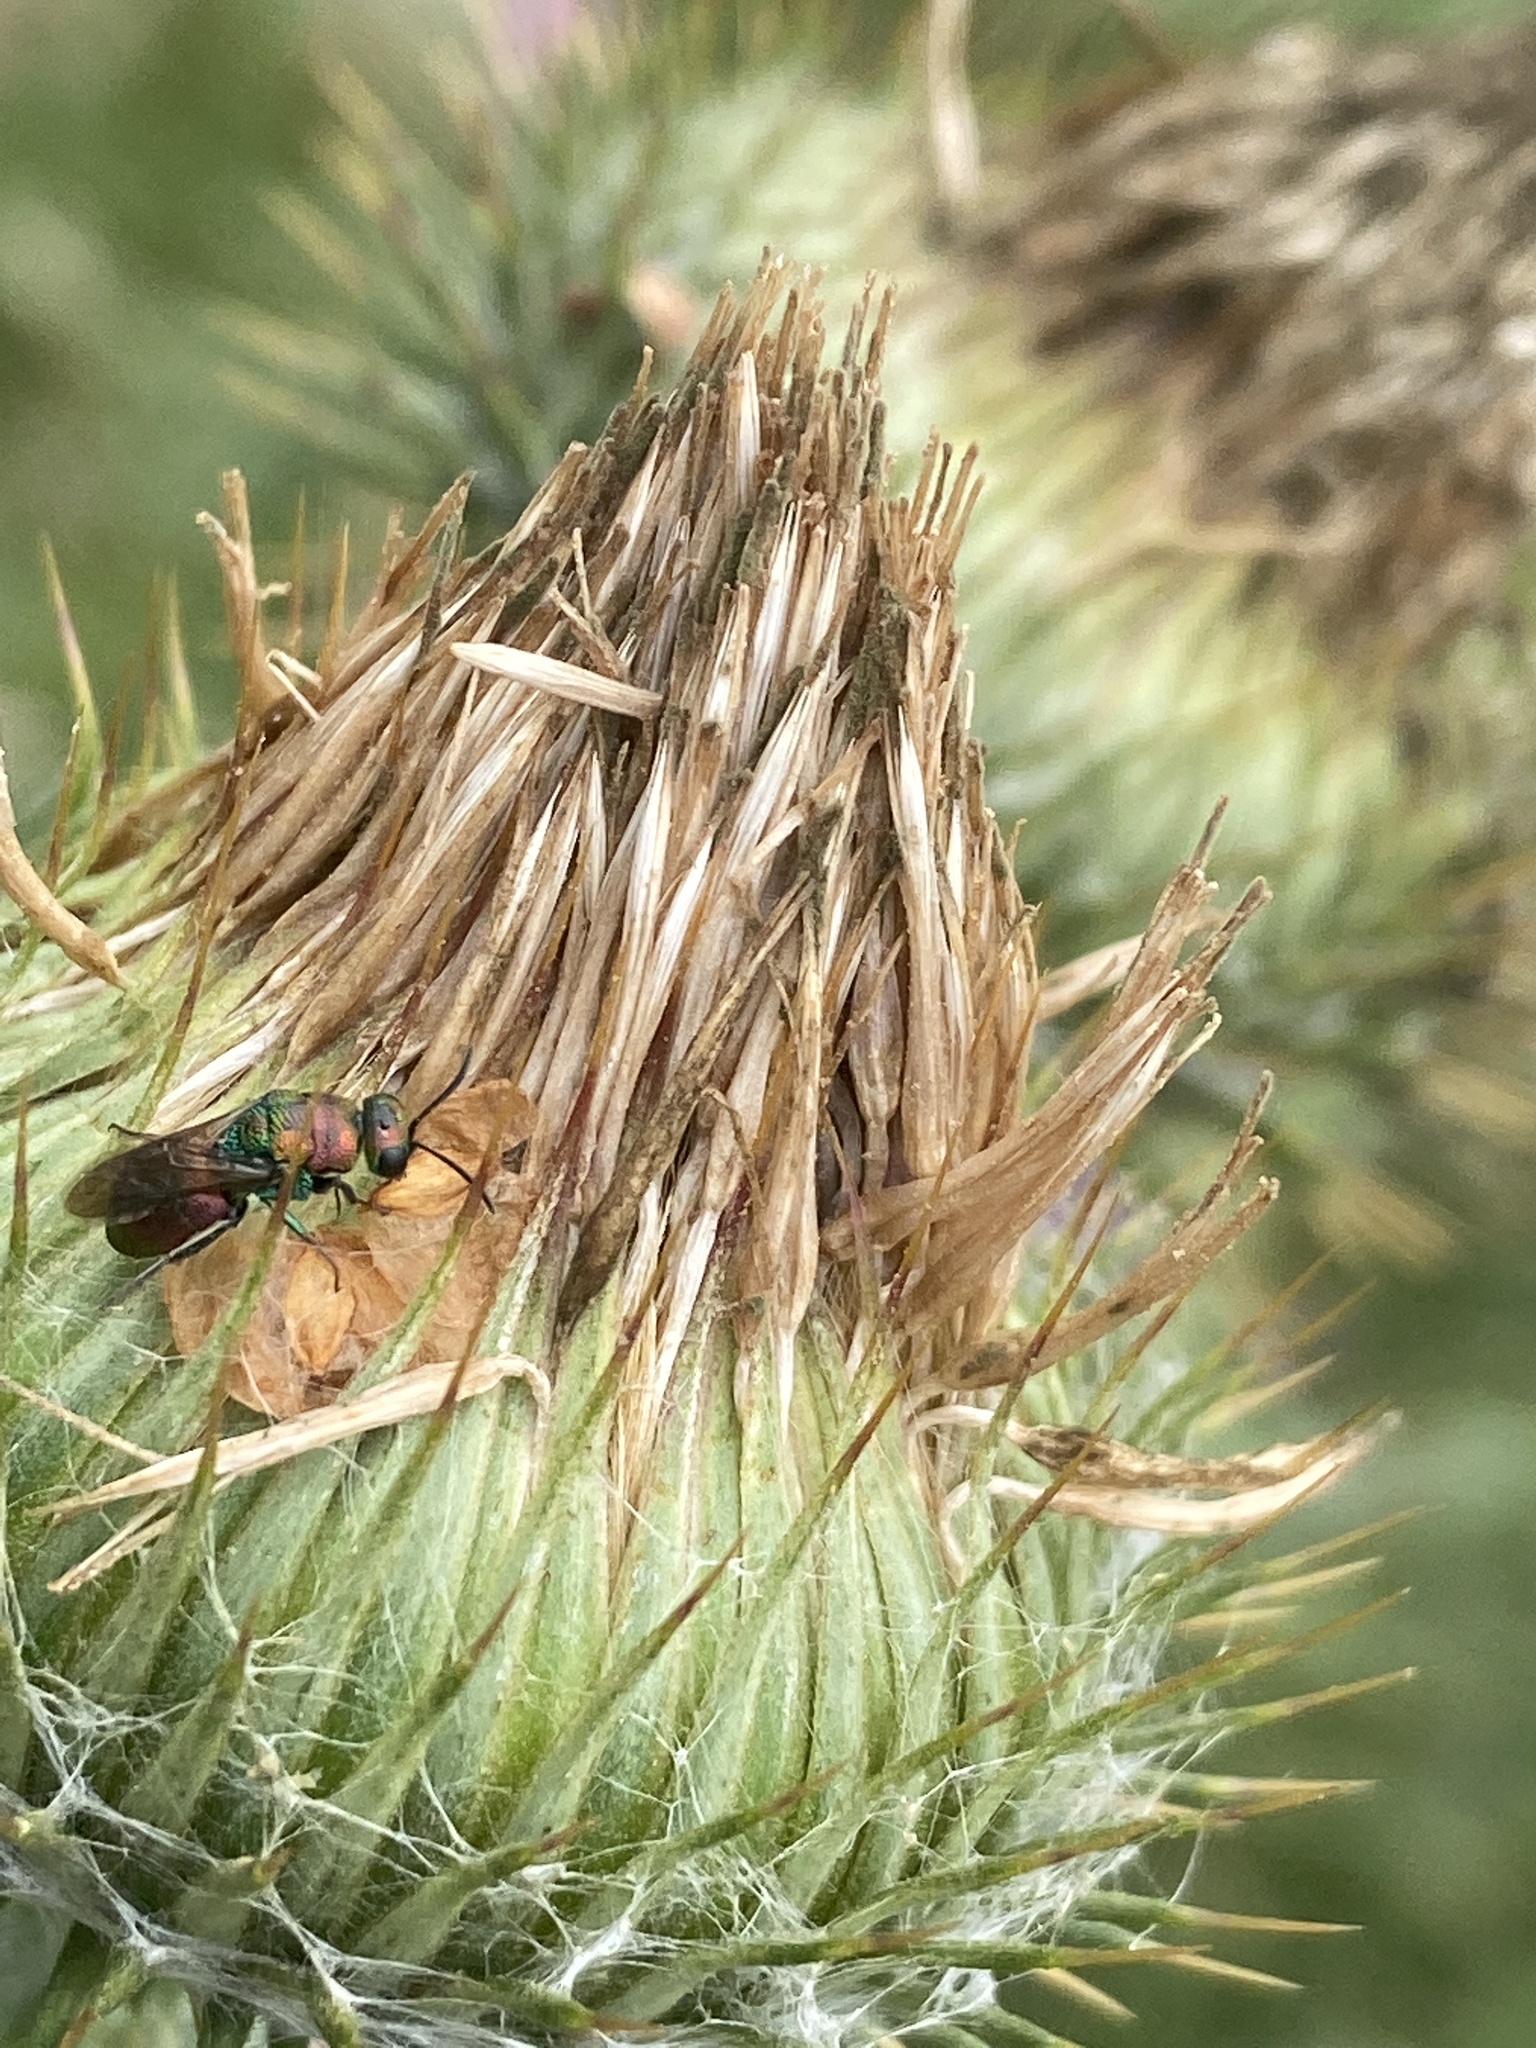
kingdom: Animalia
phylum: Arthropoda
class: Insecta
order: Hymenoptera
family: Chrysididae
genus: Hedychrum
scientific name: Hedychrum rutilans
